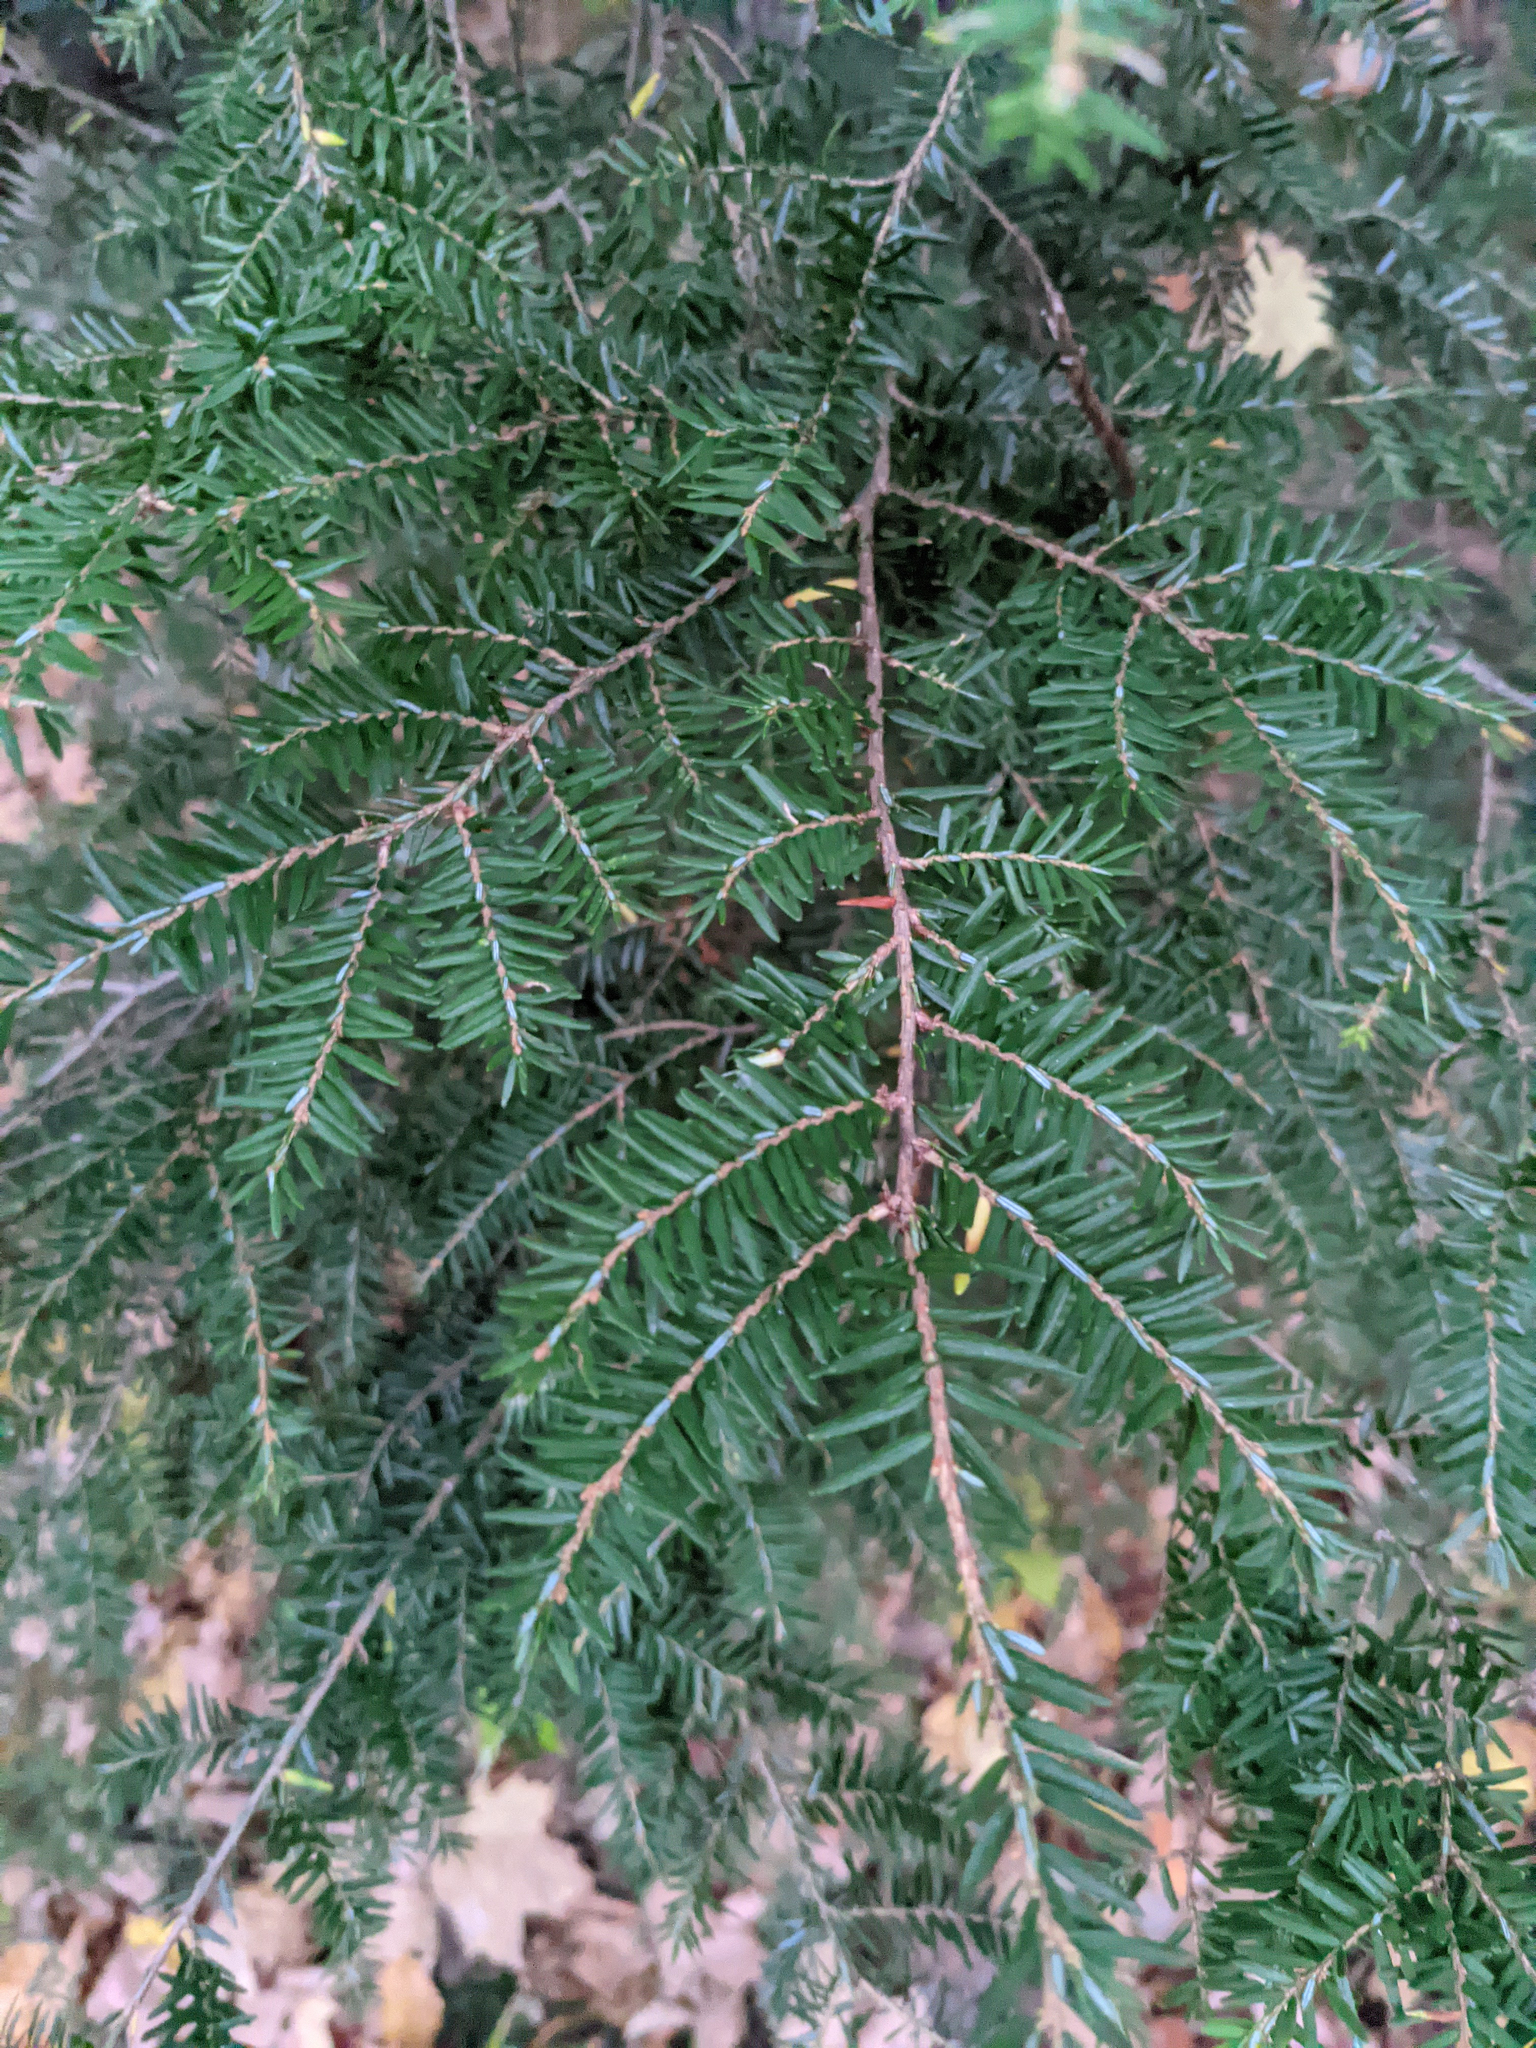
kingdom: Plantae
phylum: Tracheophyta
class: Pinopsida
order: Pinales
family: Pinaceae
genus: Tsuga
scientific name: Tsuga canadensis
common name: Eastern hemlock
